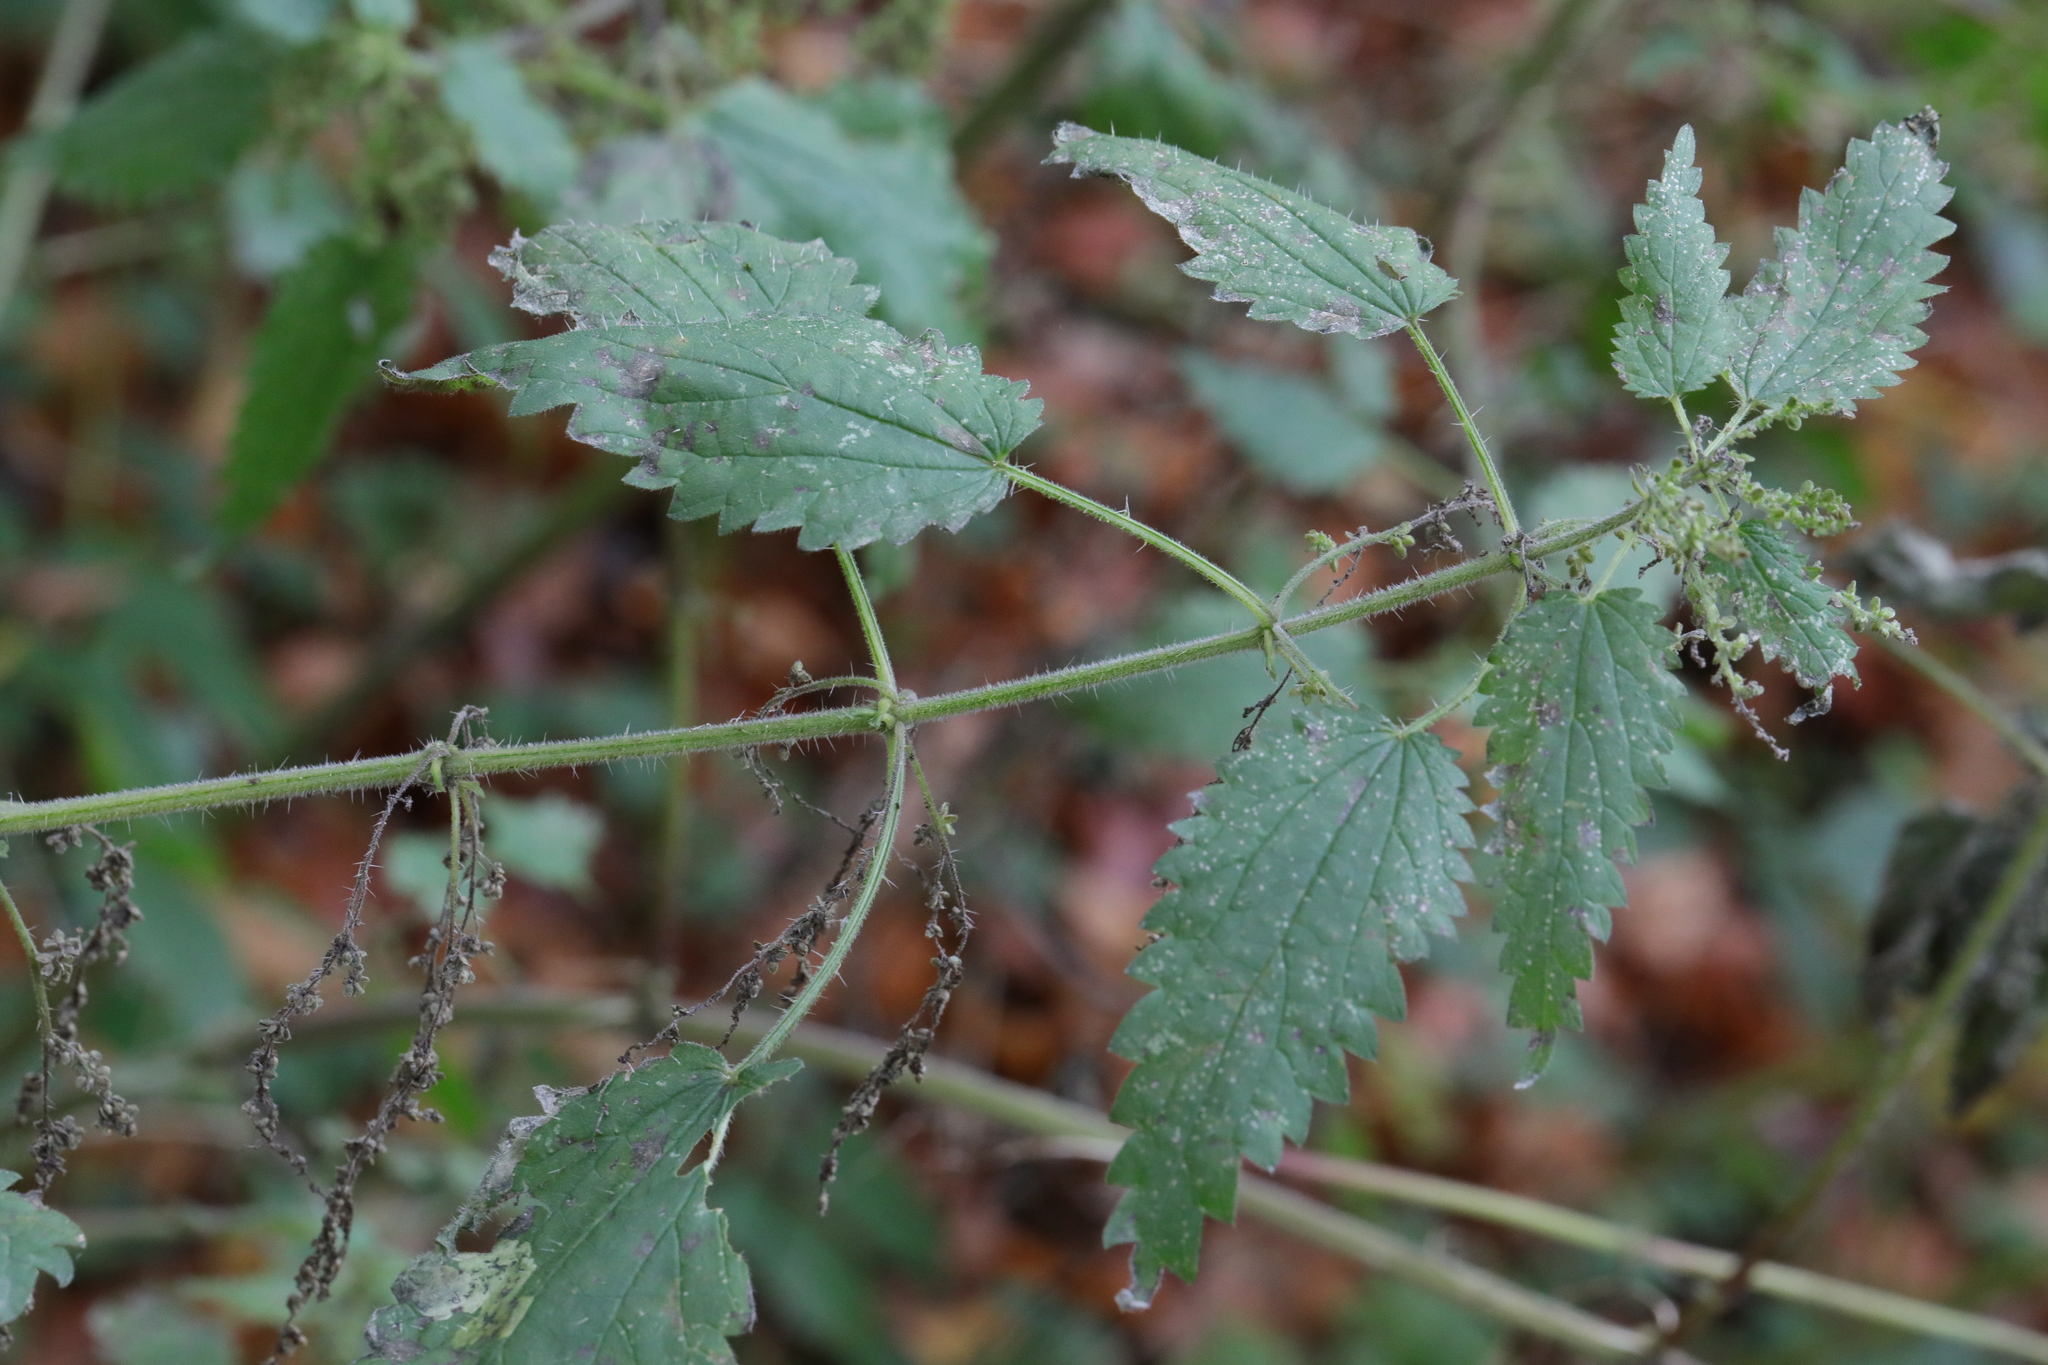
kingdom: Plantae
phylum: Tracheophyta
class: Magnoliopsida
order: Rosales
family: Urticaceae
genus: Urtica
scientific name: Urtica dioica
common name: Common nettle
